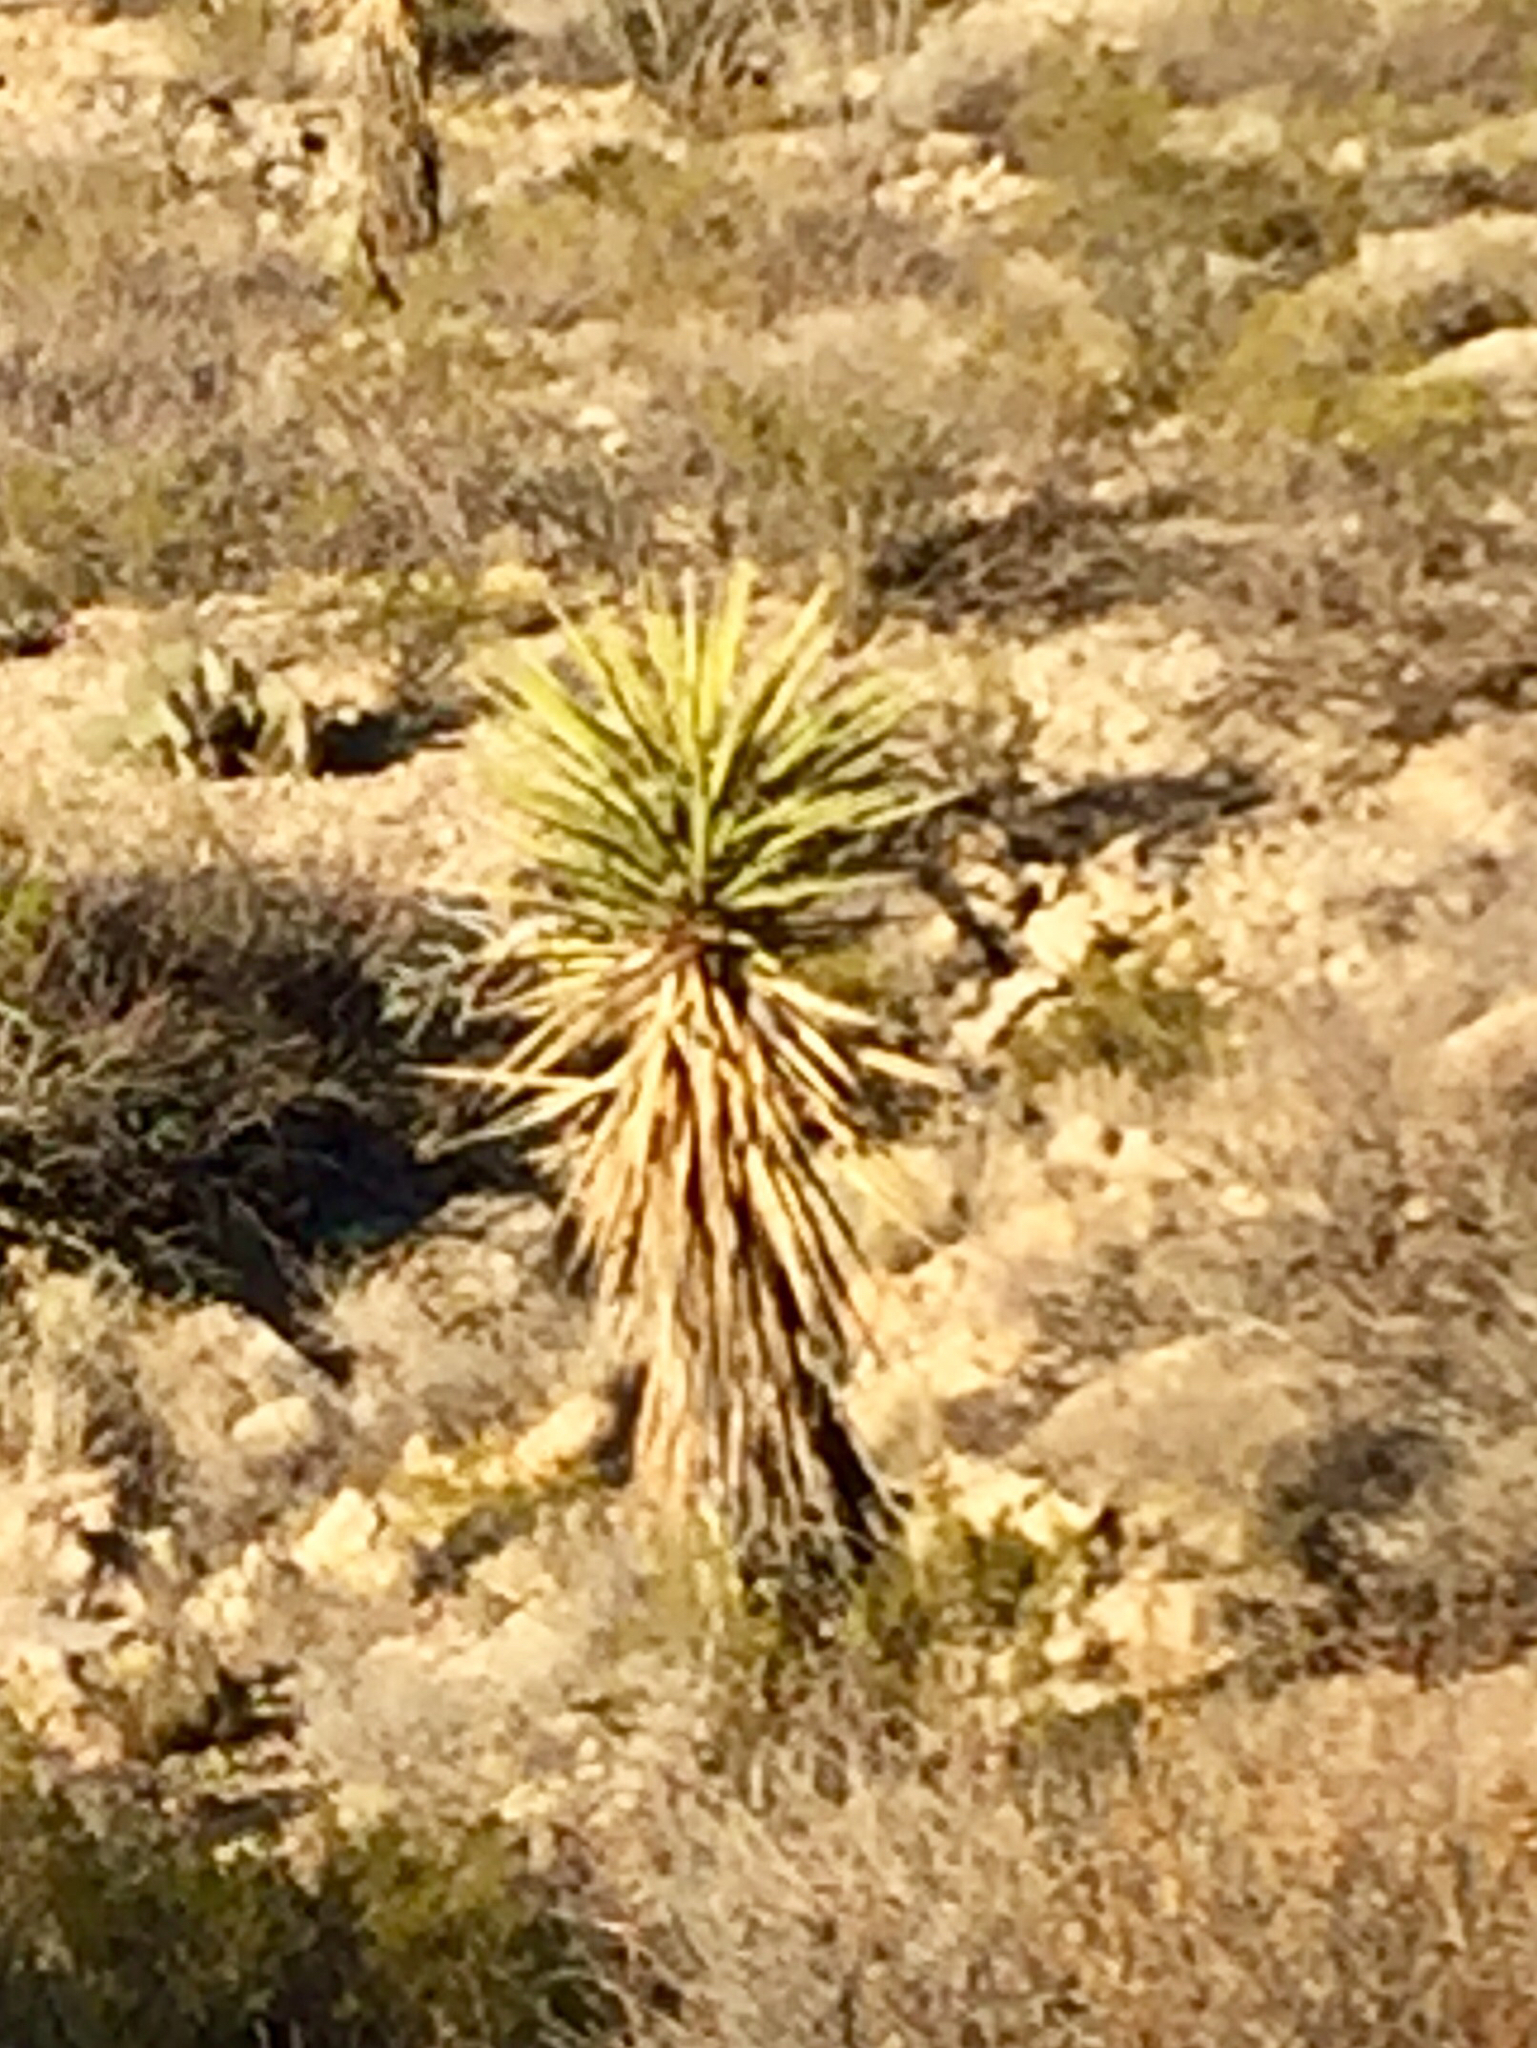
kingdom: Plantae
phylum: Tracheophyta
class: Liliopsida
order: Asparagales
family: Asparagaceae
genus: Yucca
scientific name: Yucca treculiana
